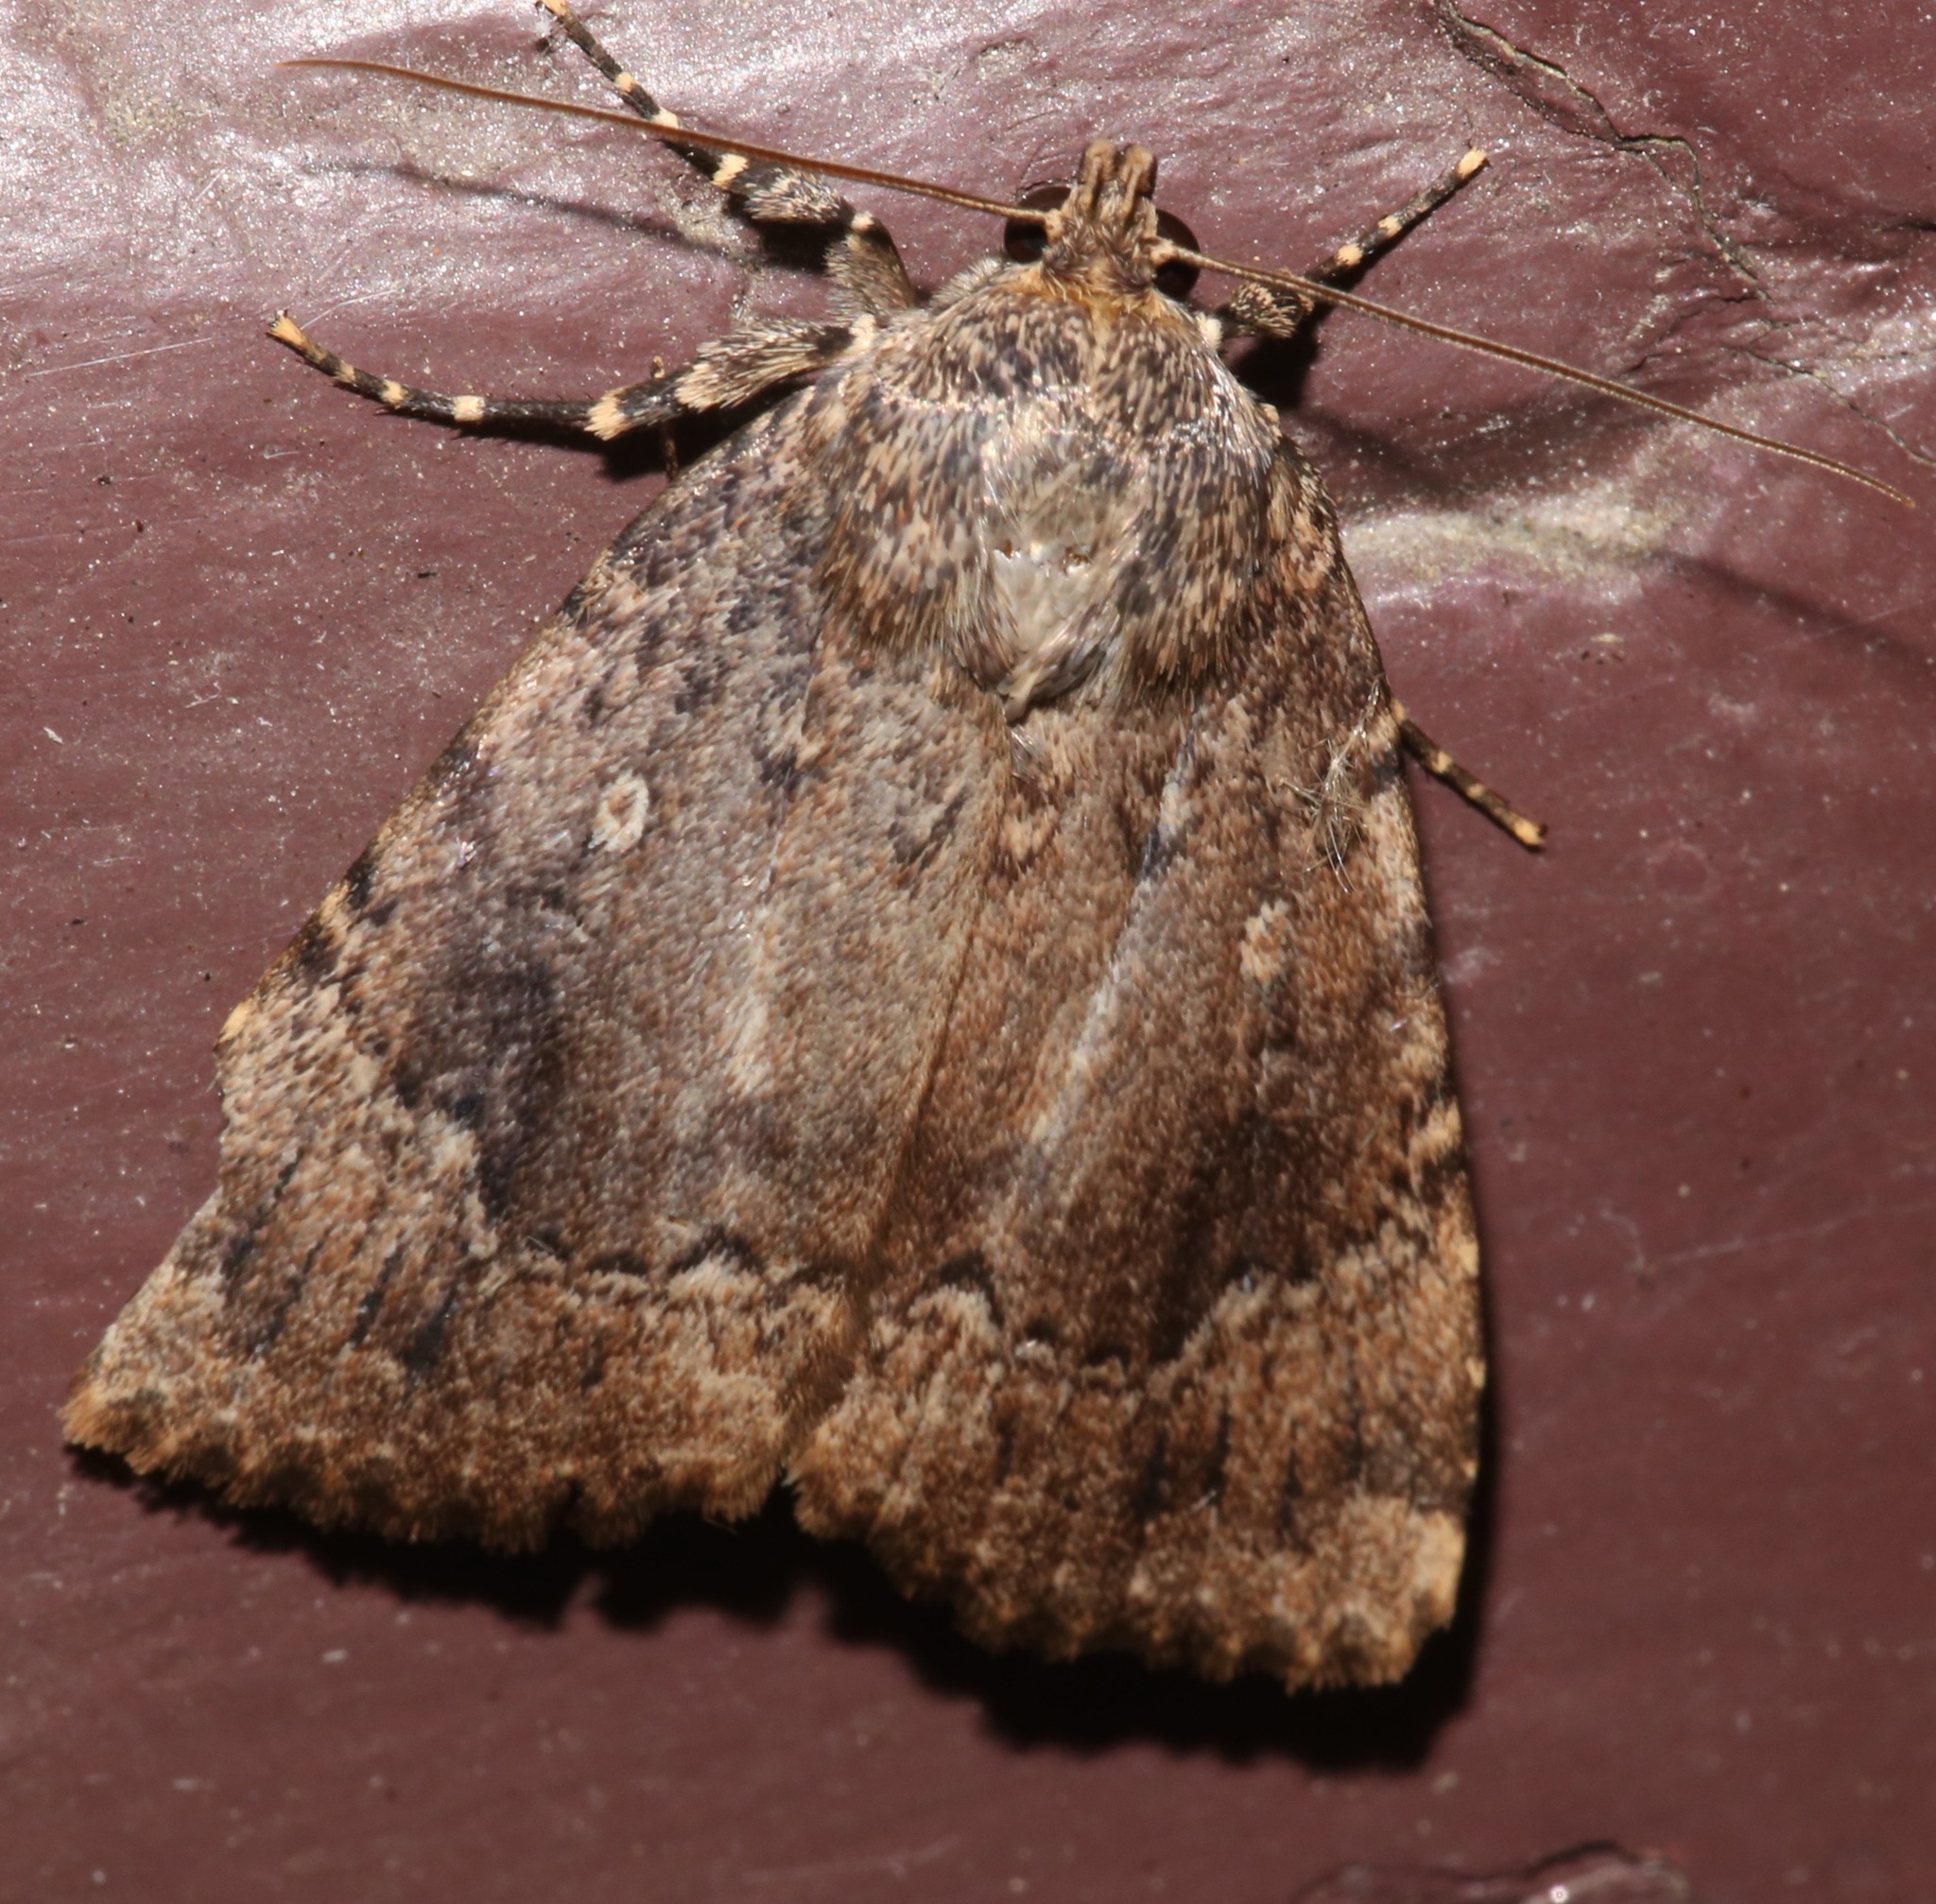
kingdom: Animalia
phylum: Arthropoda
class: Insecta
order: Lepidoptera
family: Noctuidae
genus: Amphipyra
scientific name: Amphipyra pyramidoides
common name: American copper underwing
